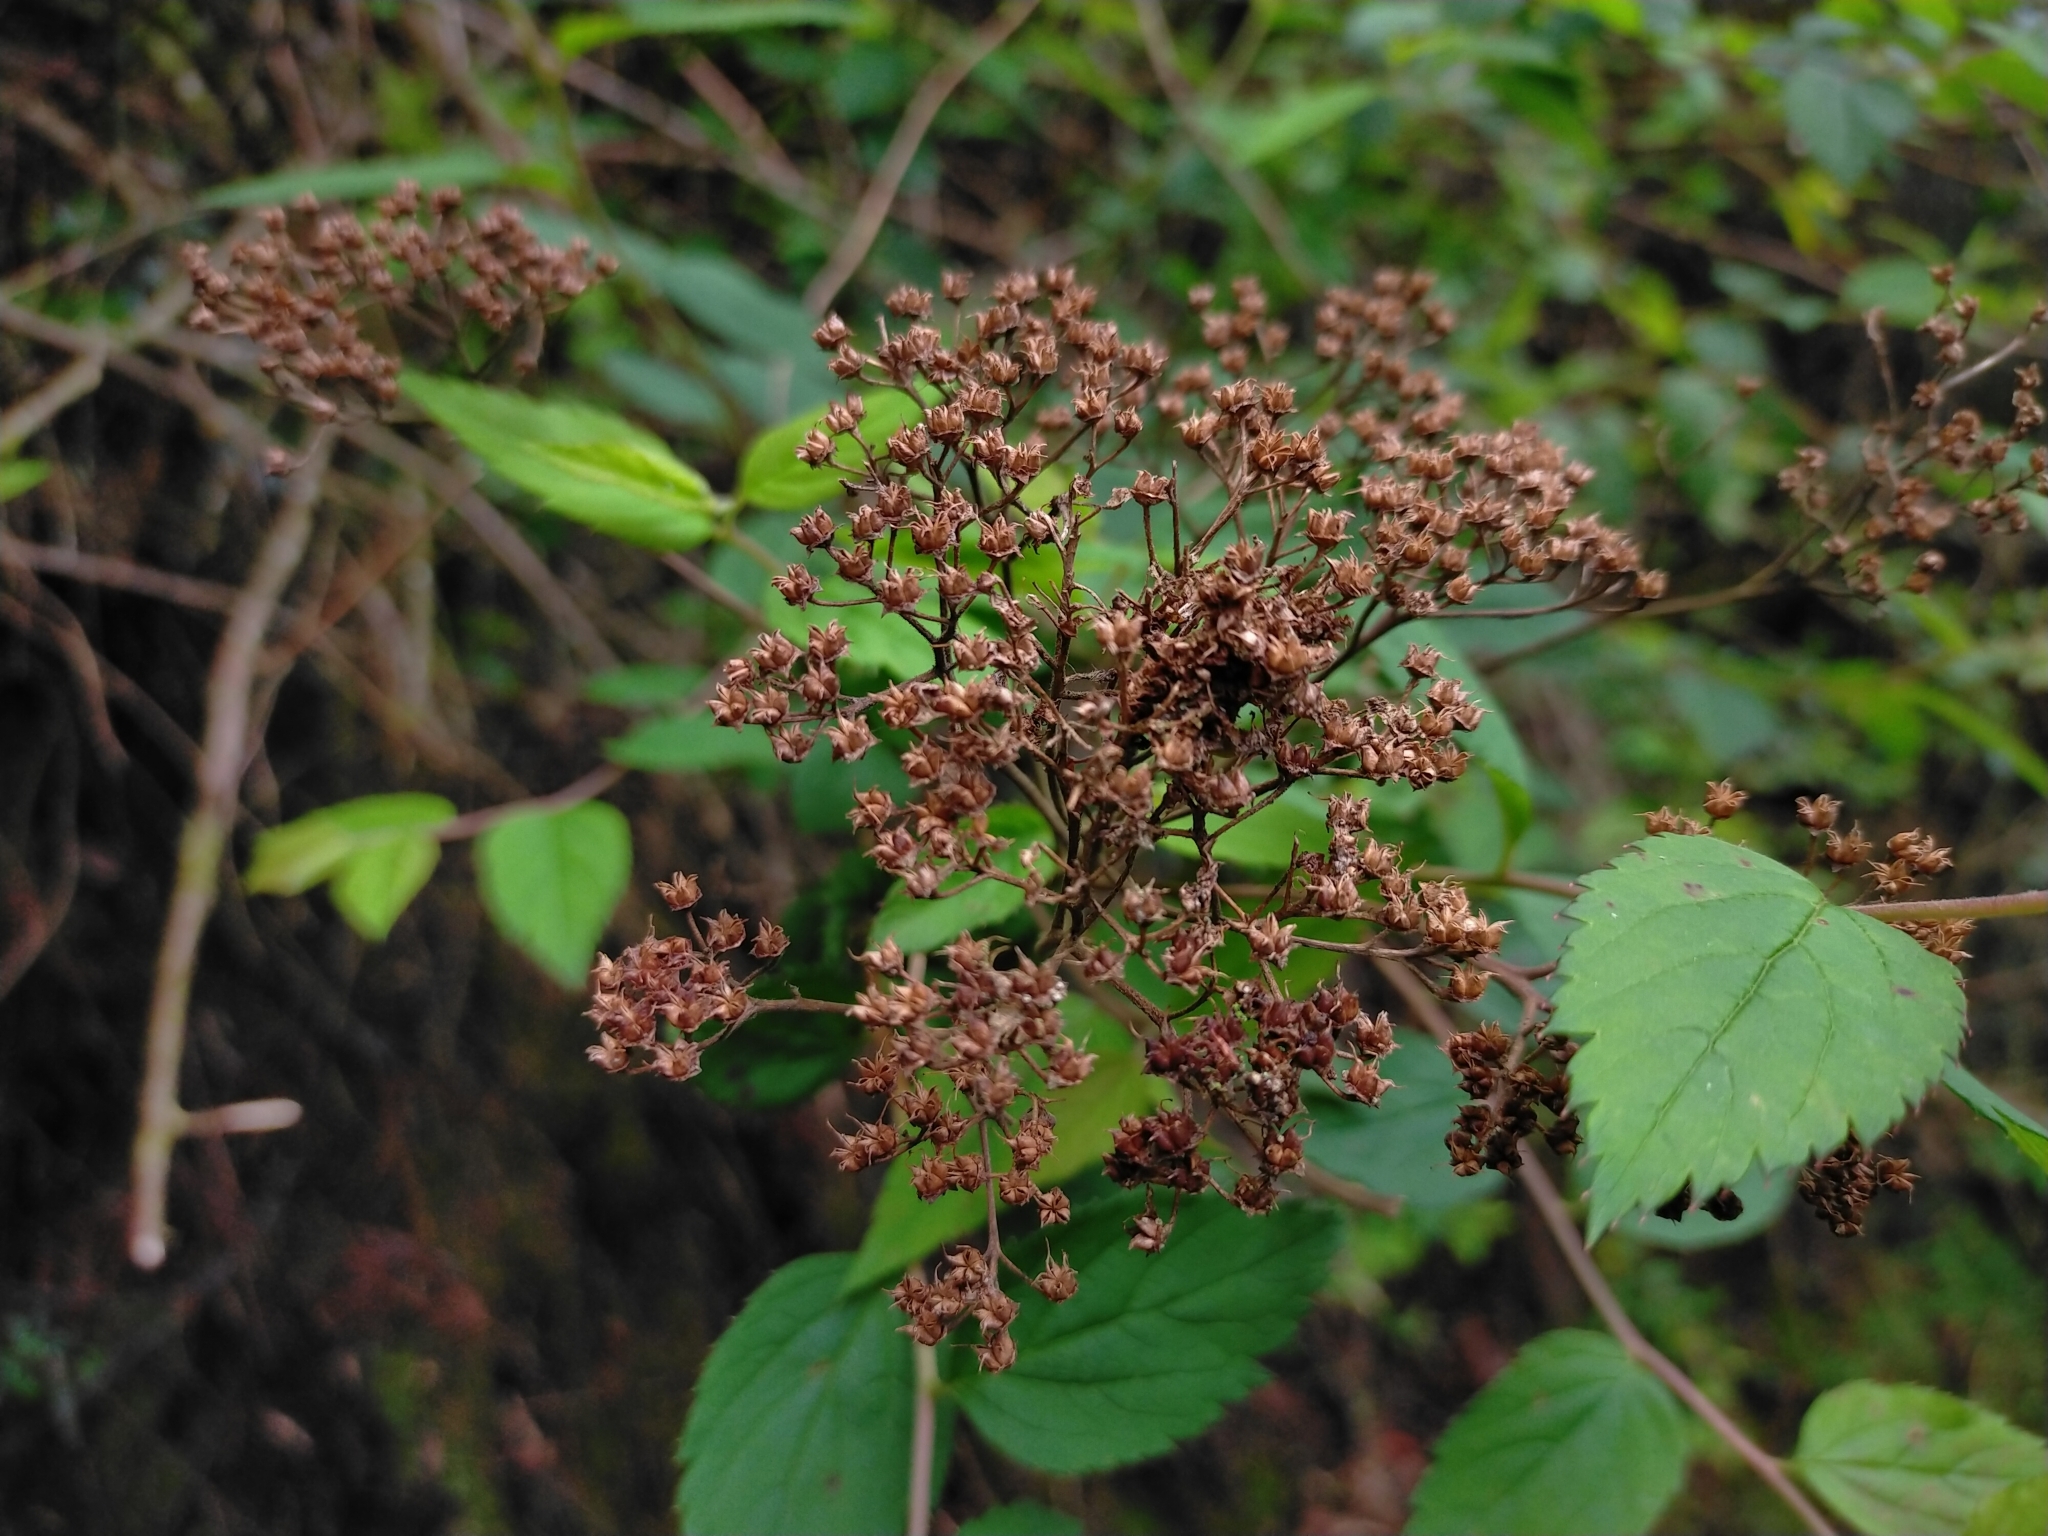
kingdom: Plantae
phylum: Tracheophyta
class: Magnoliopsida
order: Rosales
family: Rosaceae
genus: Spiraea
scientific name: Spiraea japonica
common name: Japanese spiraea
